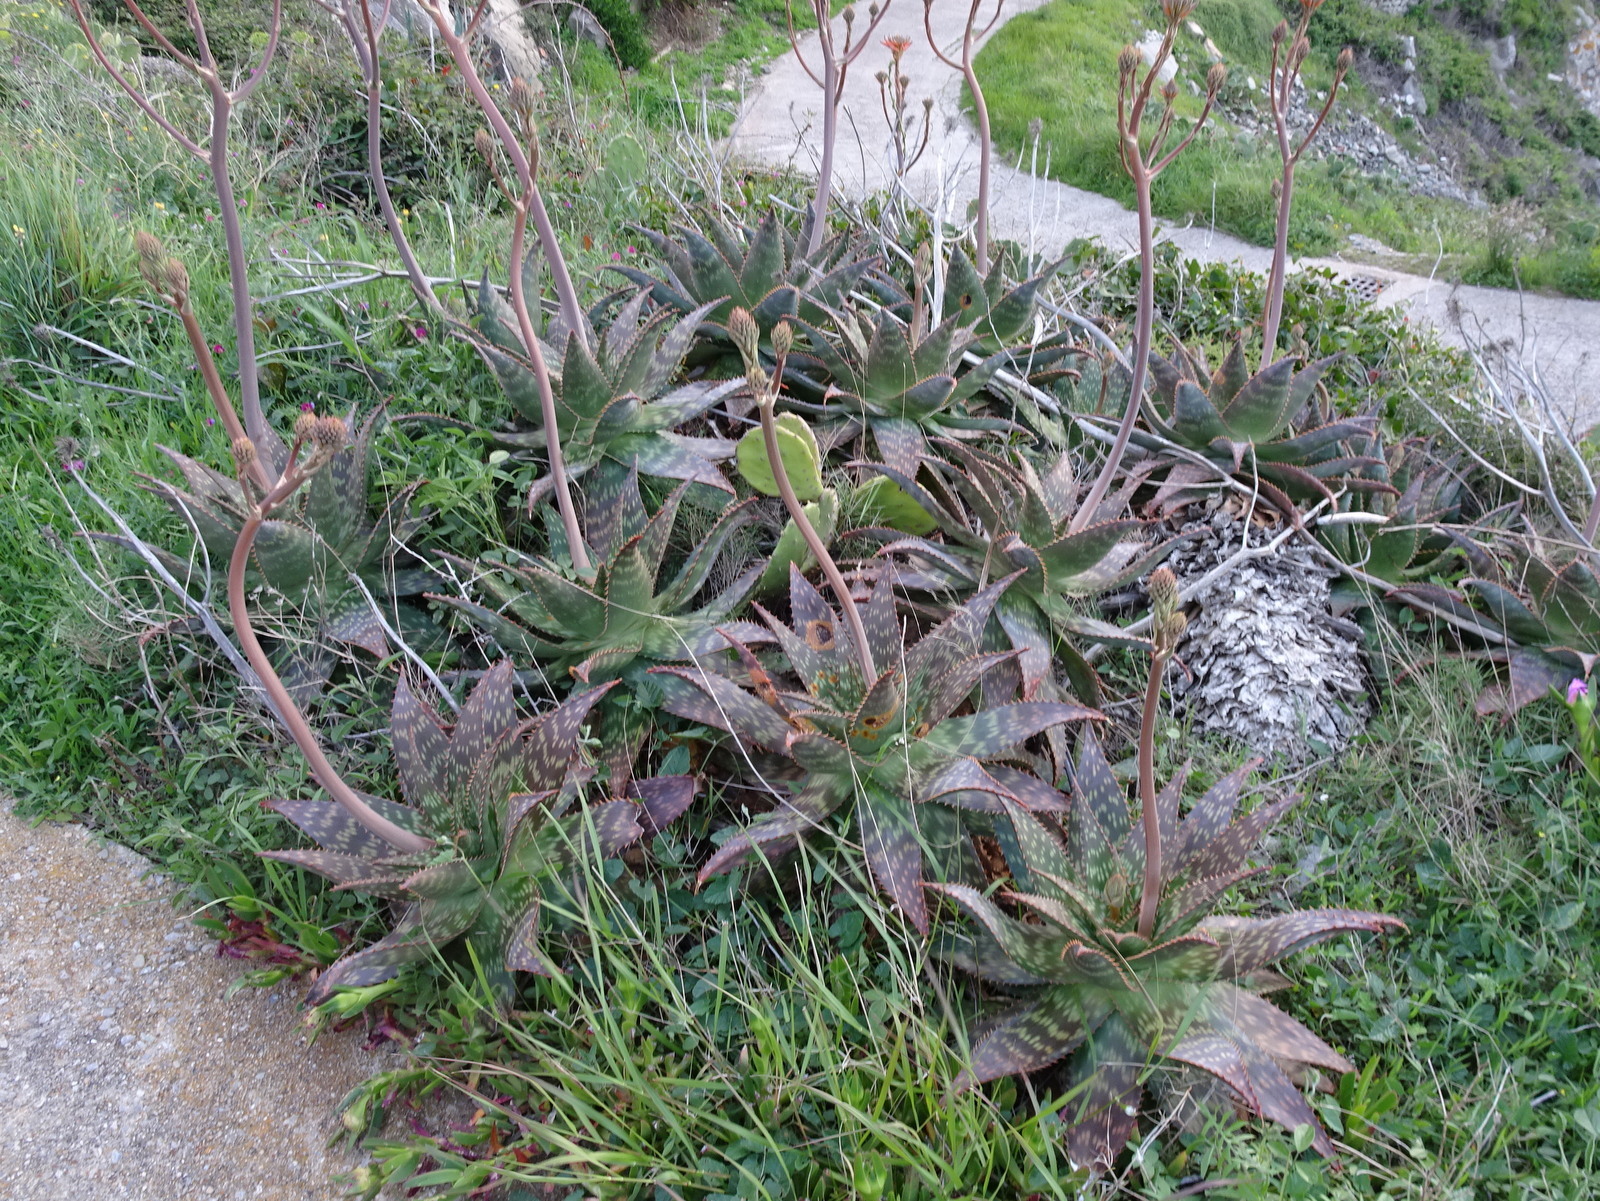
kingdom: Plantae
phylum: Tracheophyta
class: Liliopsida
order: Asparagales
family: Asphodelaceae
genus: Aloe
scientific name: Aloe maculata
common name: Broadleaf aloe
